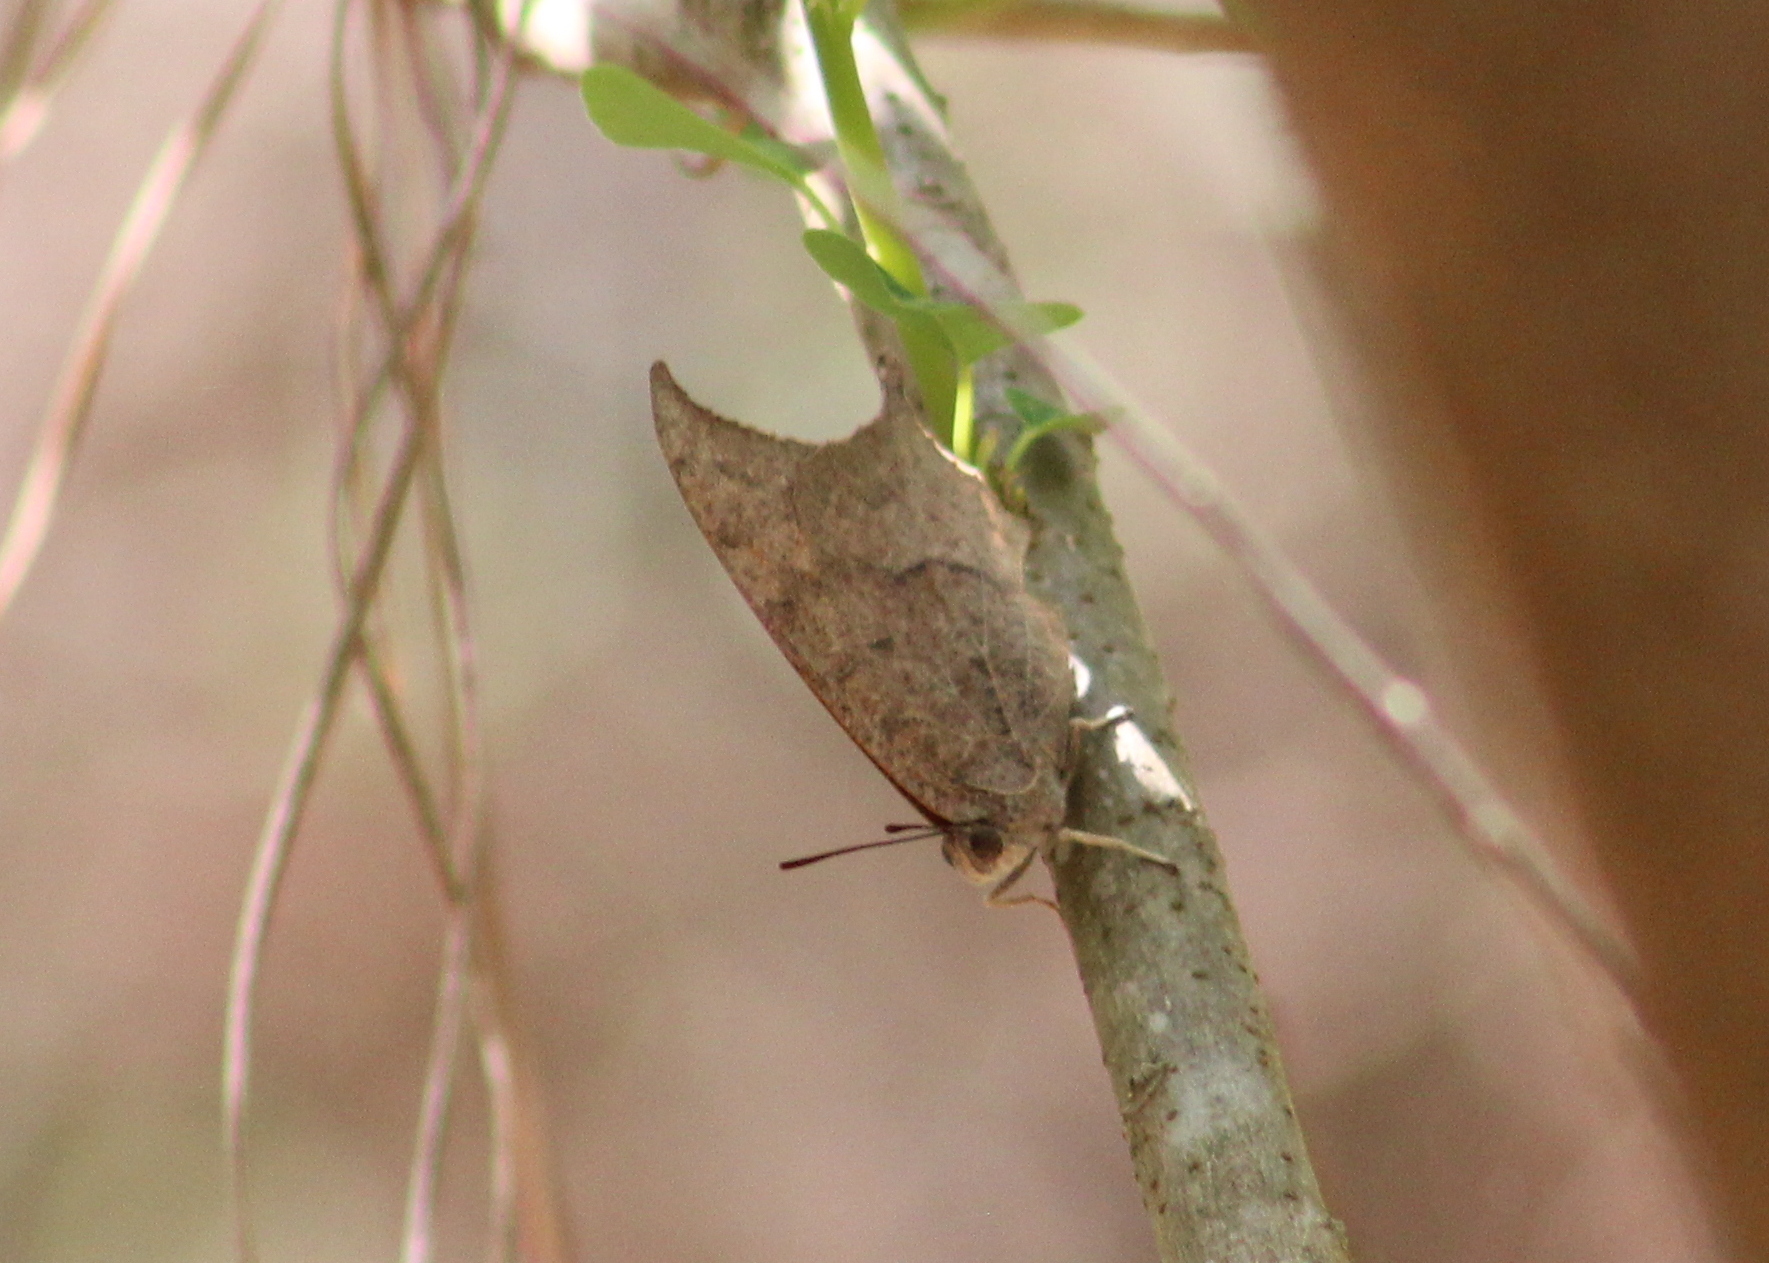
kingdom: Animalia
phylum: Arthropoda
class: Insecta
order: Lepidoptera
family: Nymphalidae
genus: Anaea
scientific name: Anaea andria
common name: Goatweed leafwing
